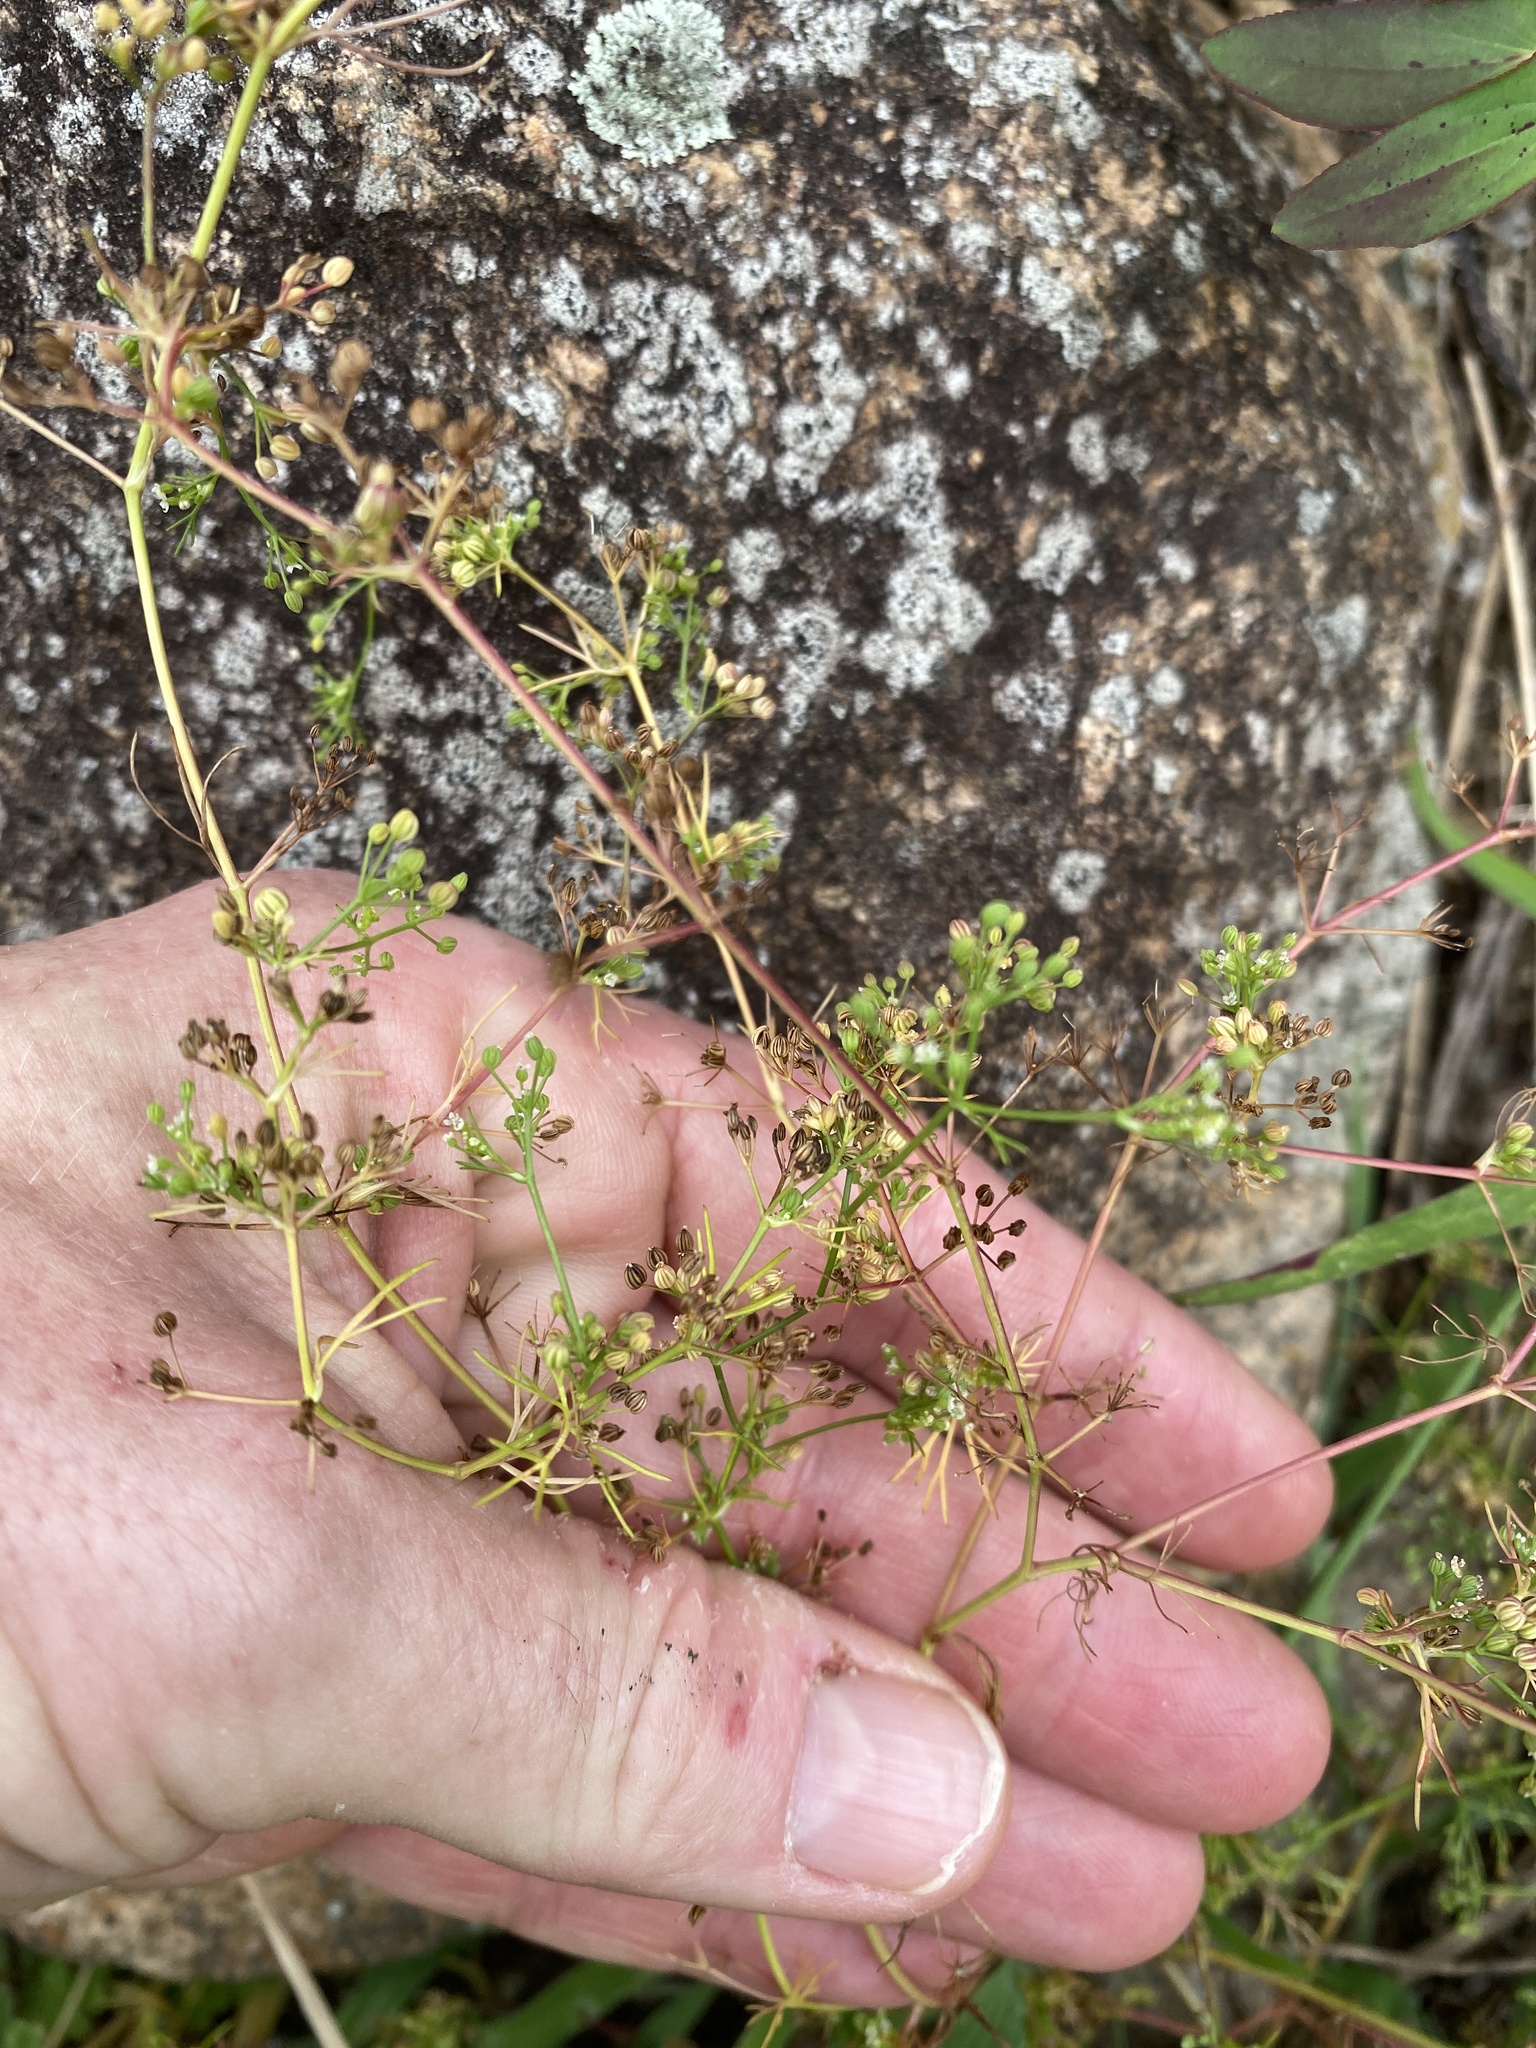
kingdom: Plantae
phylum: Tracheophyta
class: Magnoliopsida
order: Apiales
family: Apiaceae
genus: Cyclospermum
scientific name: Cyclospermum leptophyllum
